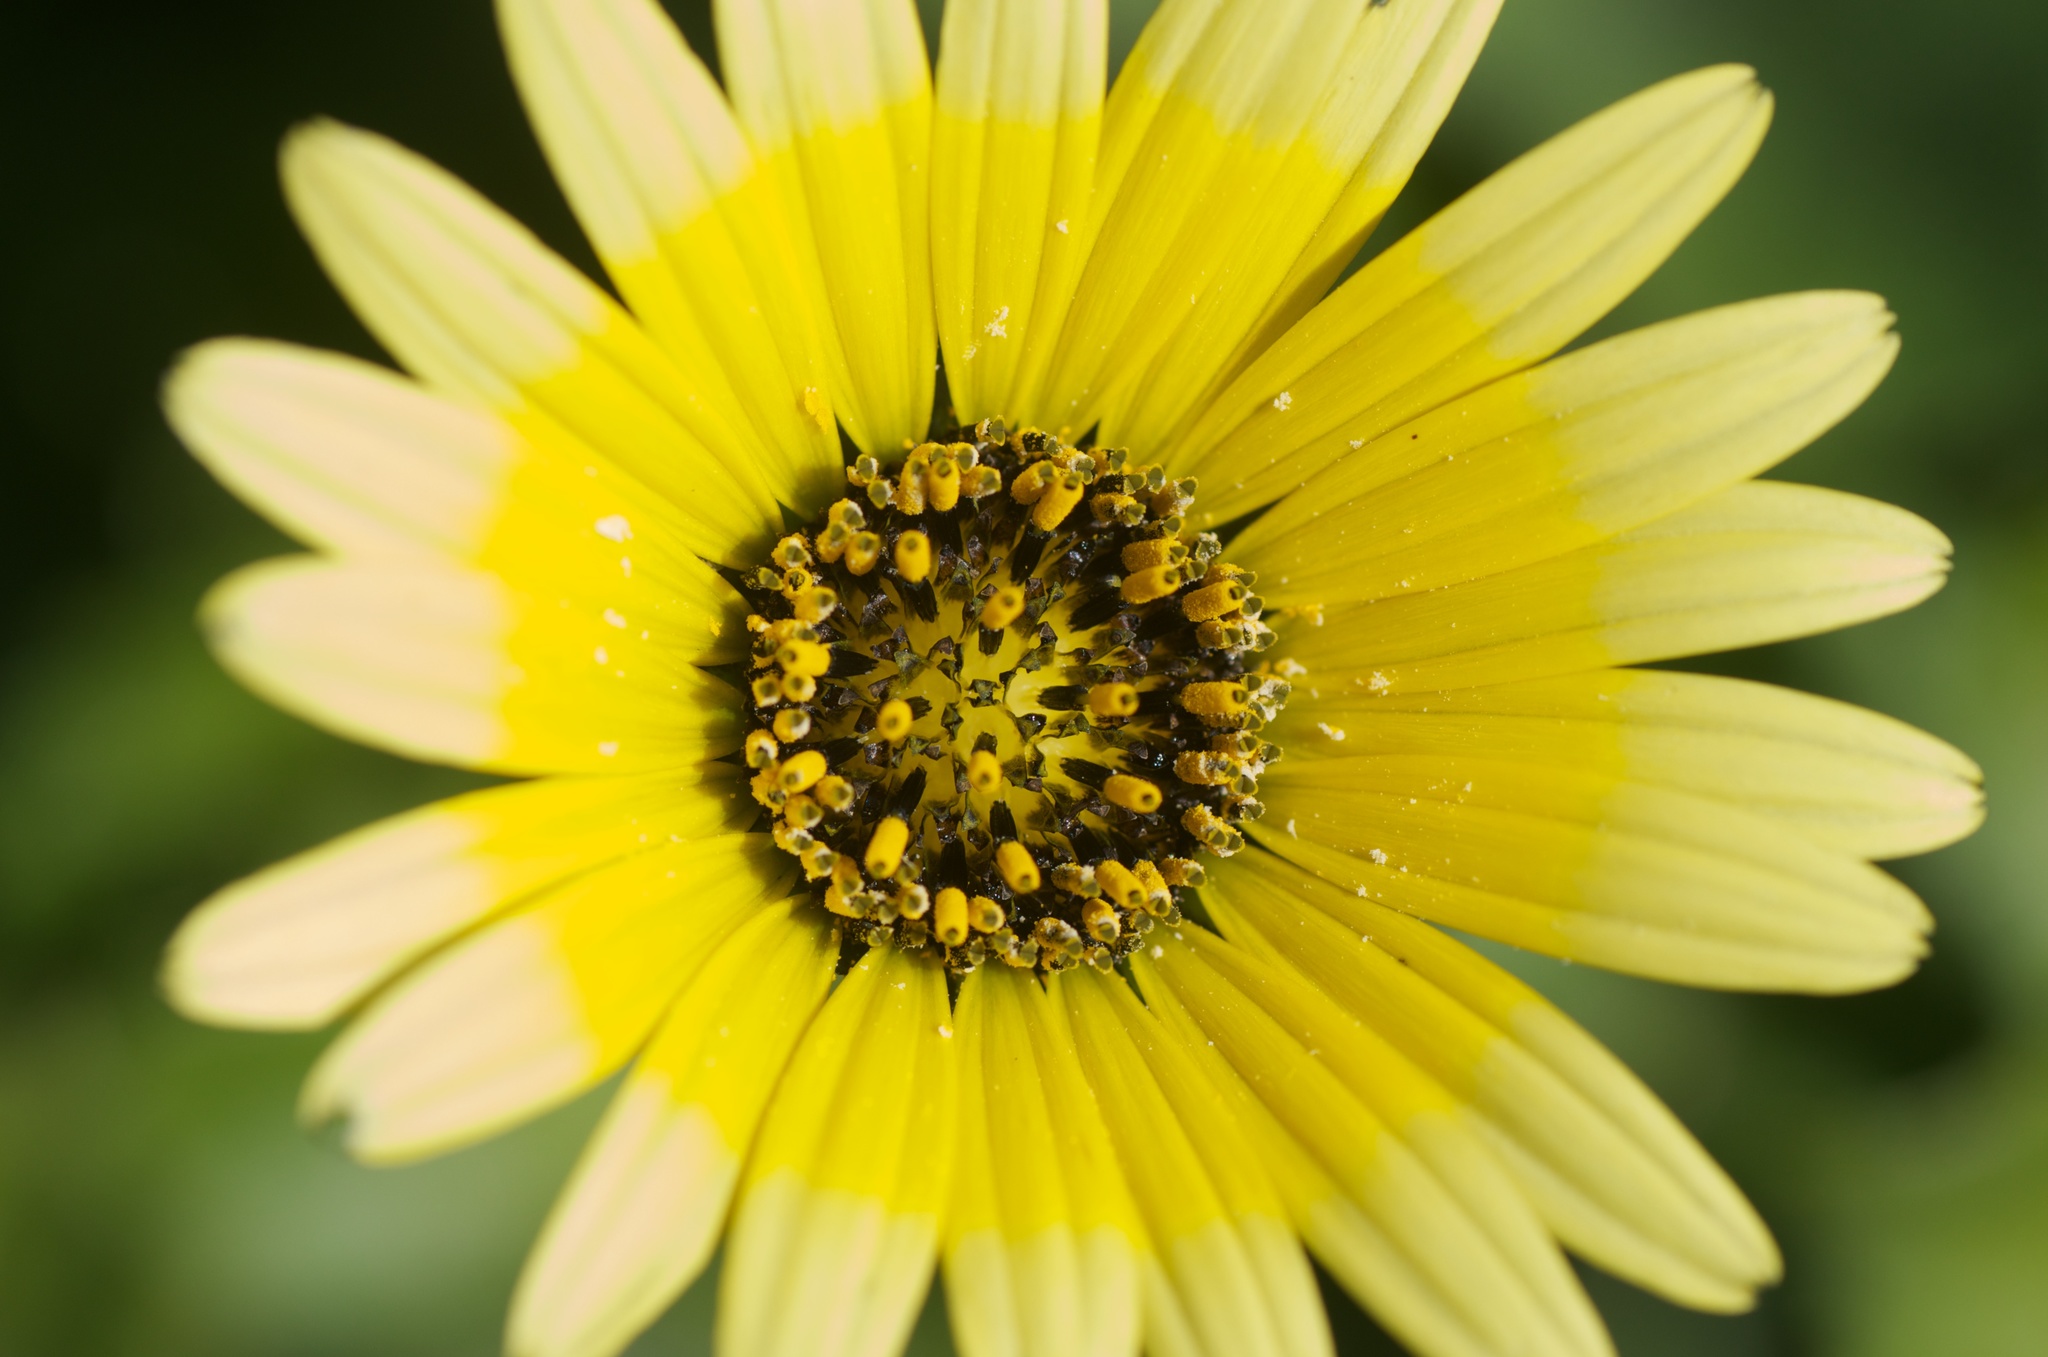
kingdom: Plantae
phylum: Tracheophyta
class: Magnoliopsida
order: Asterales
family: Asteraceae
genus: Arctotheca
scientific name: Arctotheca calendula
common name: Capeweed
